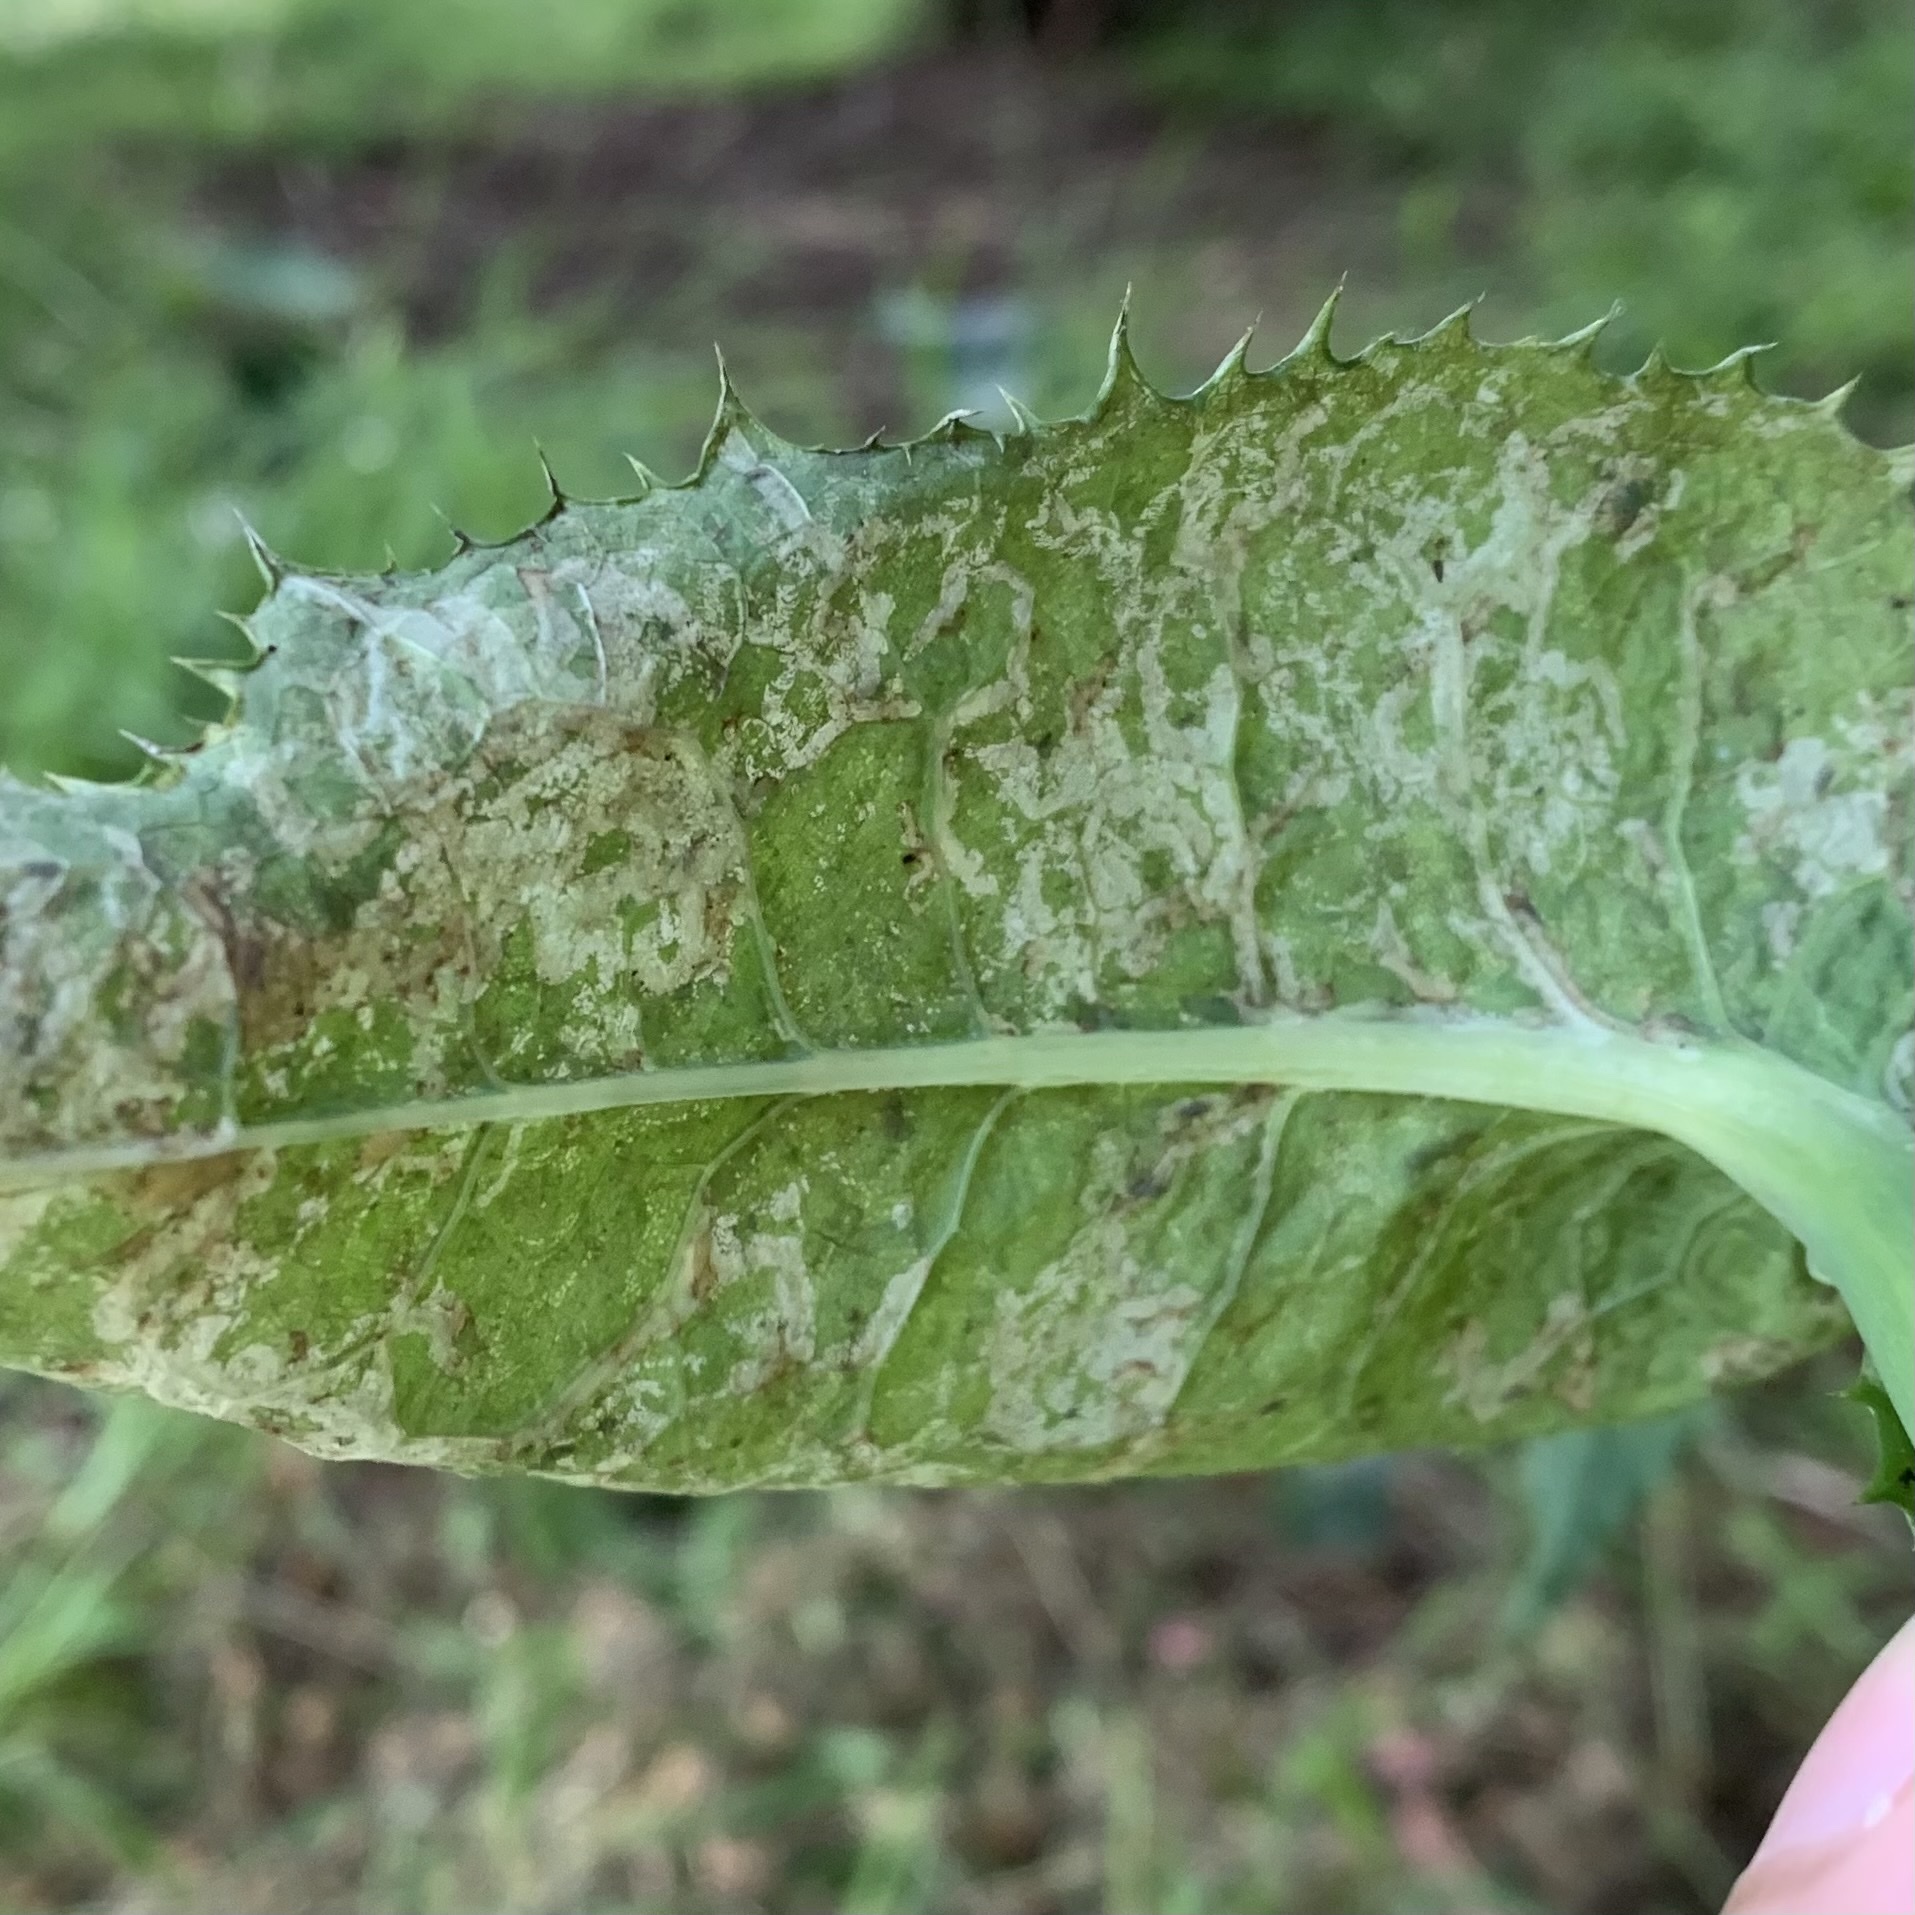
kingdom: Animalia
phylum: Arthropoda
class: Insecta
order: Diptera
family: Agromyzidae
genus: Phytomyza
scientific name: Phytomyza syngenesiae
